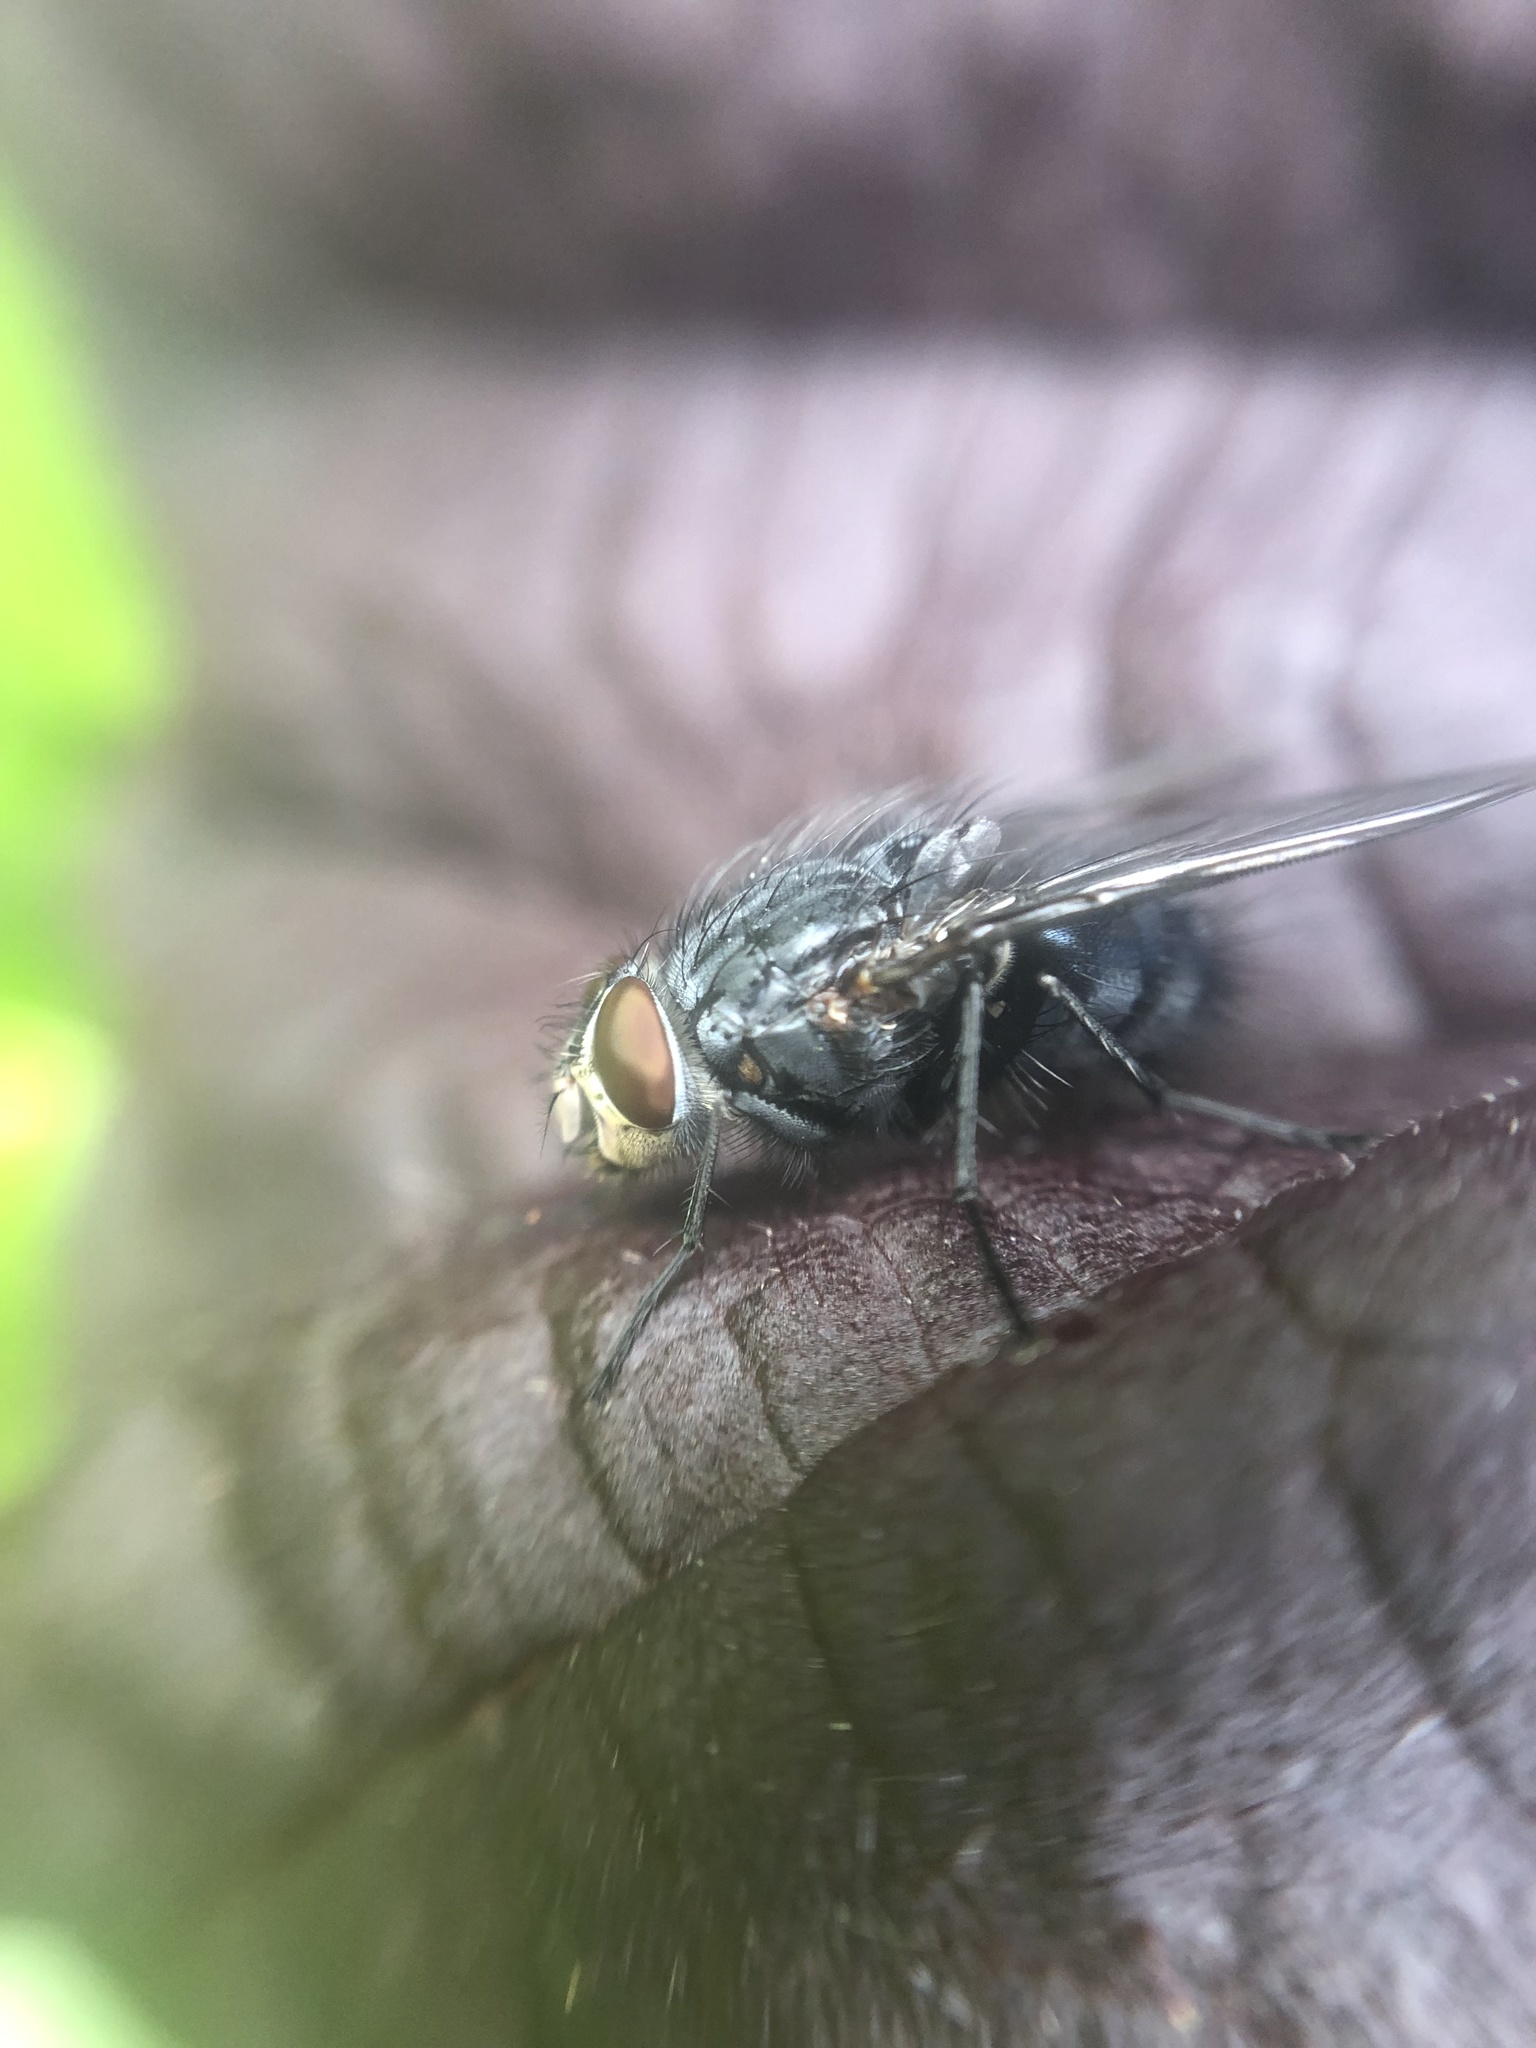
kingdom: Animalia
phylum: Arthropoda
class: Insecta
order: Diptera
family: Calliphoridae
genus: Calliphora
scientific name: Calliphora vicina
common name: Common blow flie
